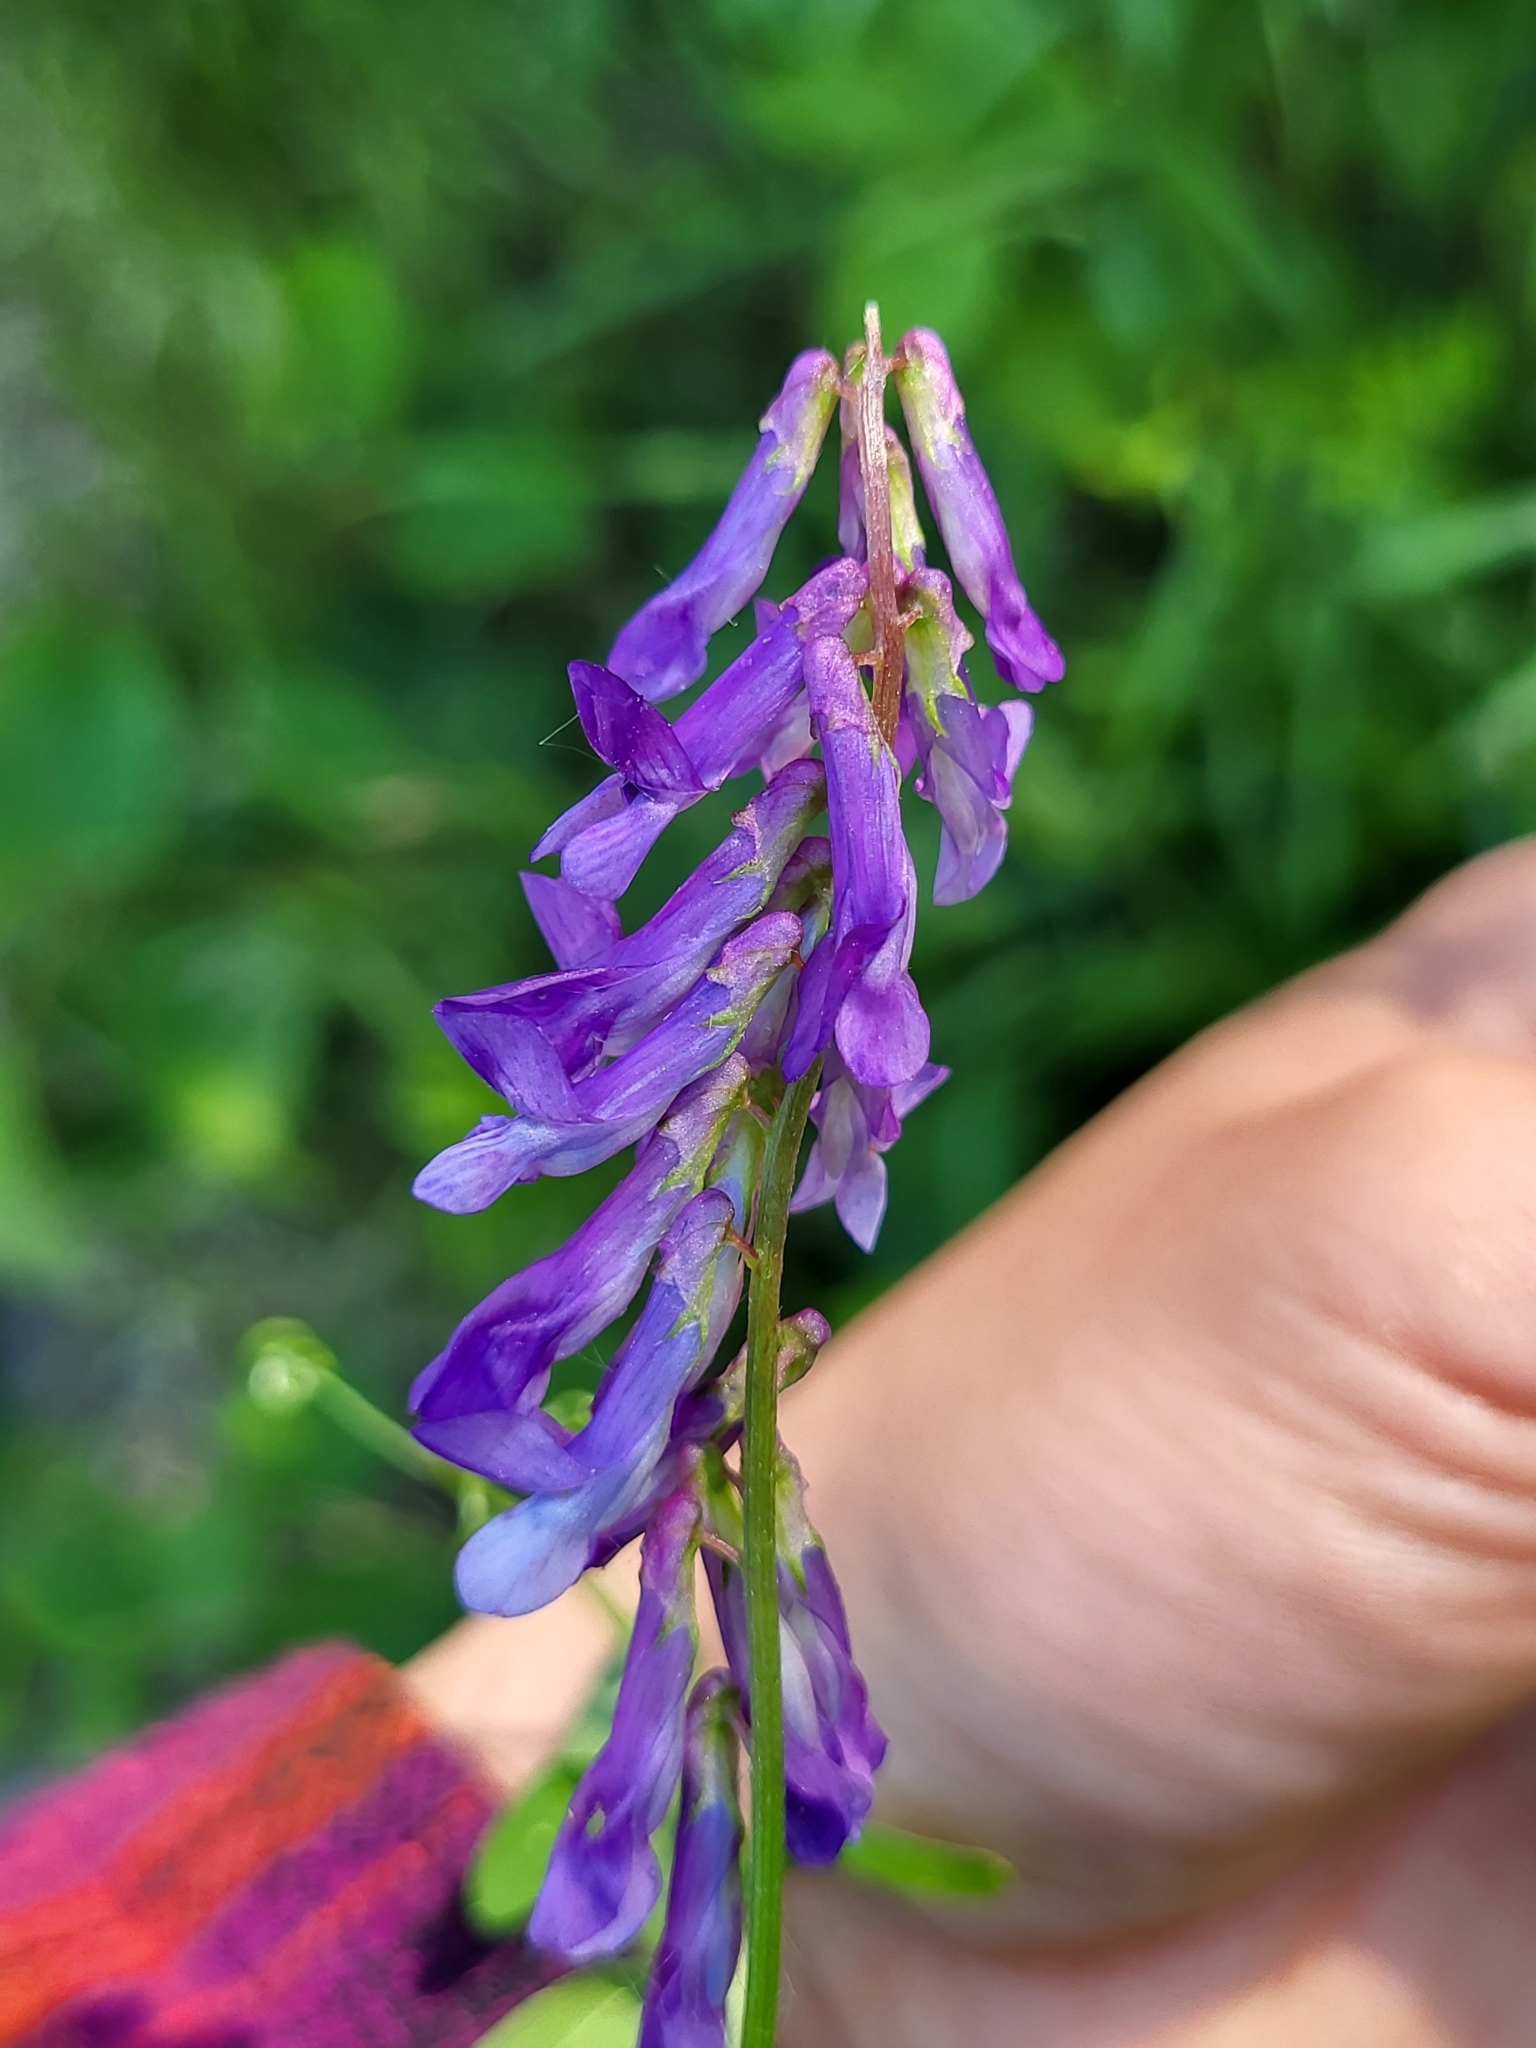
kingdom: Plantae
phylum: Tracheophyta
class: Magnoliopsida
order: Fabales
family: Fabaceae
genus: Vicia
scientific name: Vicia villosa
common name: Fodder vetch
